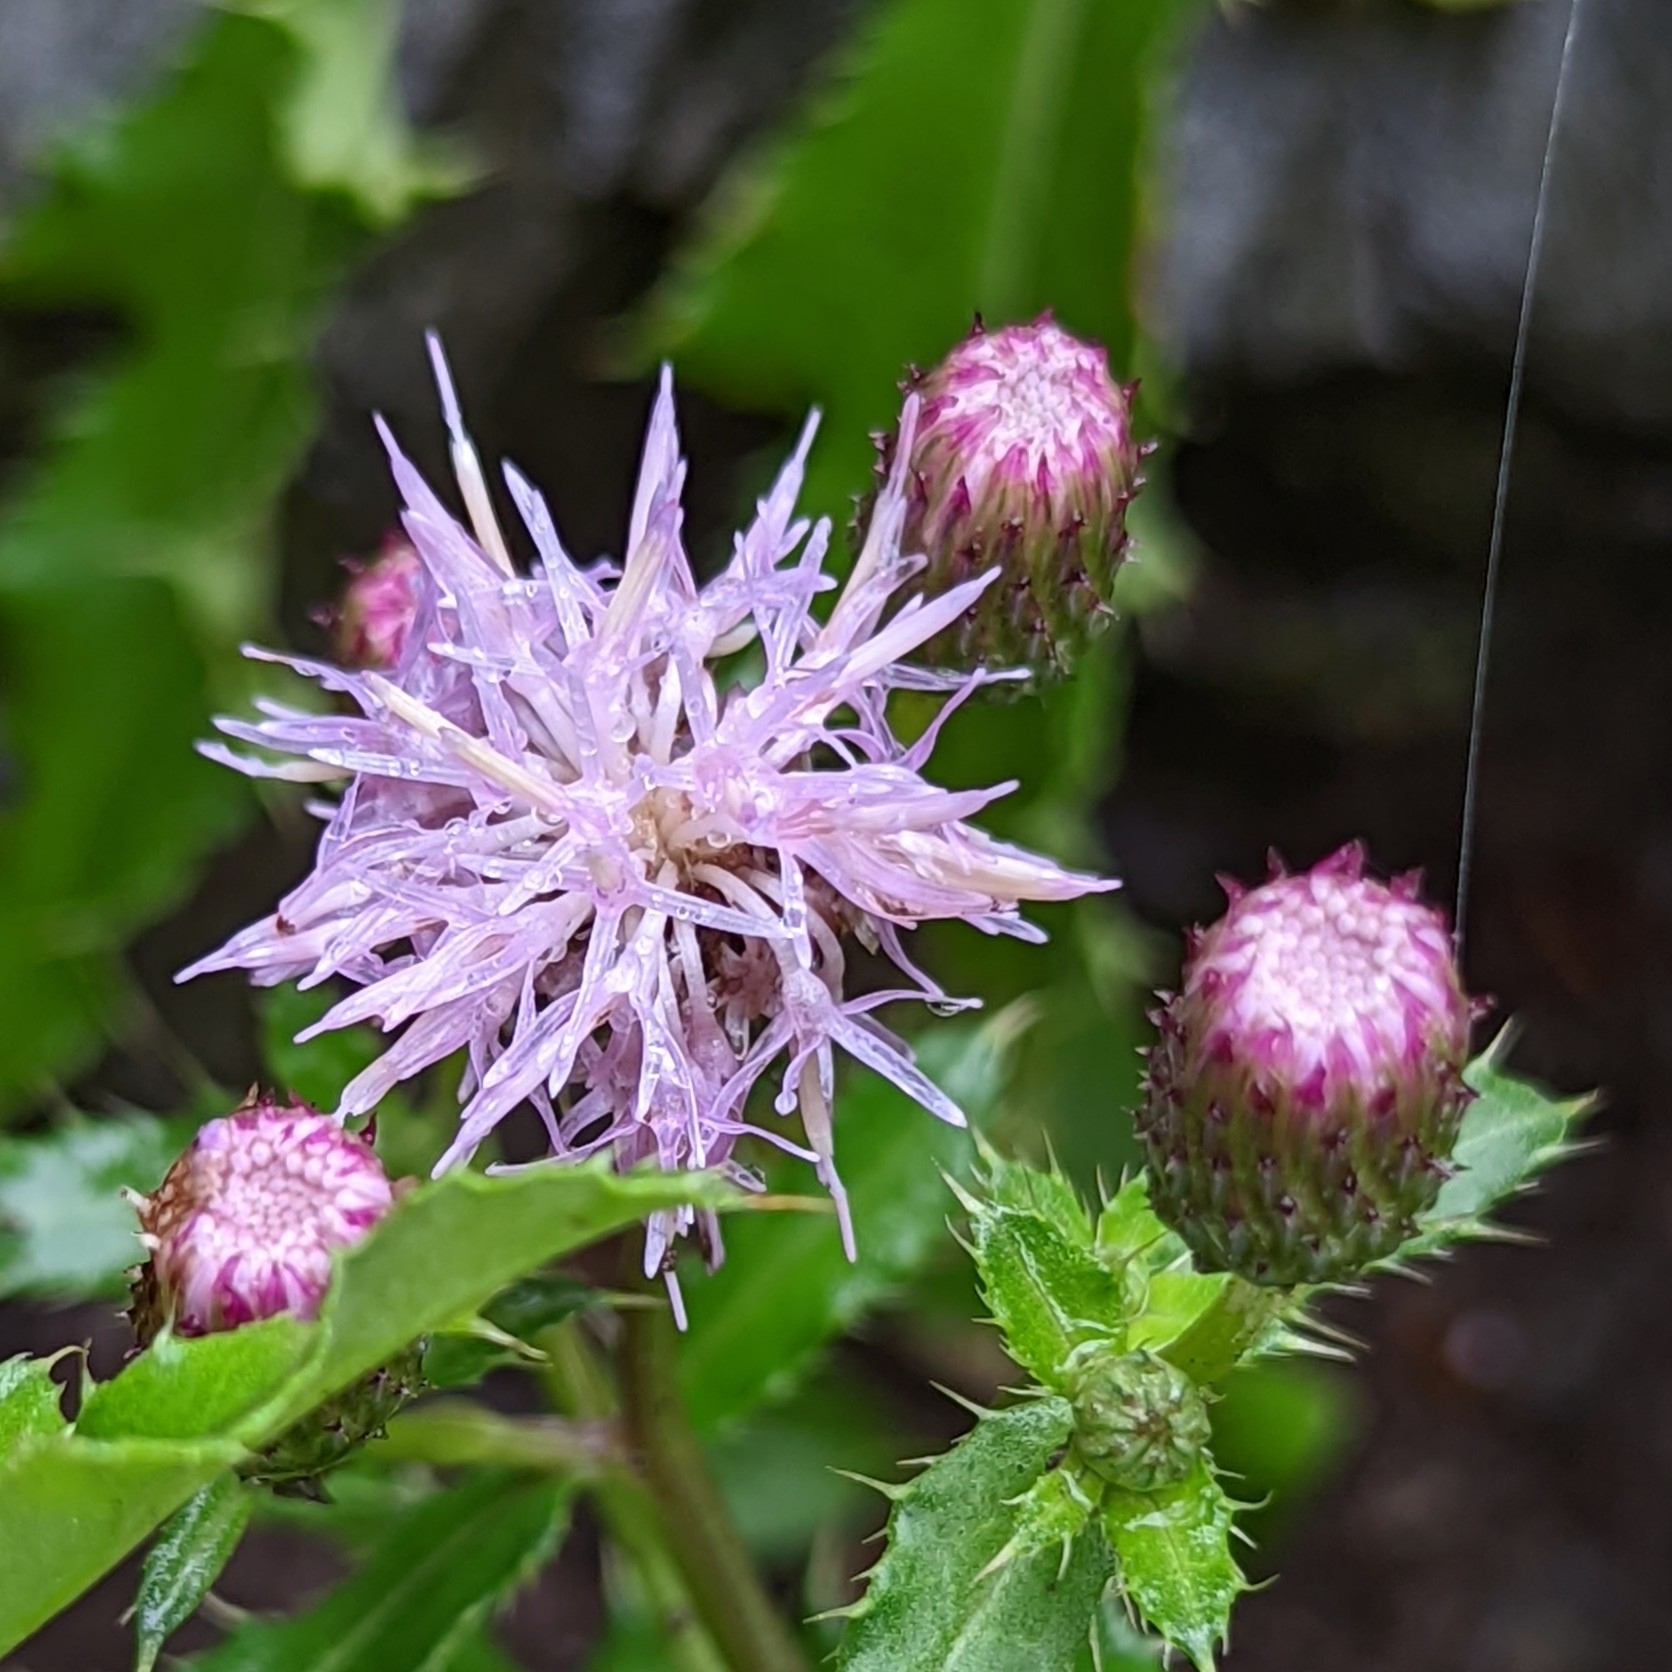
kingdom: Plantae
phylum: Tracheophyta
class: Magnoliopsida
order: Asterales
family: Asteraceae
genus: Cirsium
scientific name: Cirsium arvense
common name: Creeping thistle
